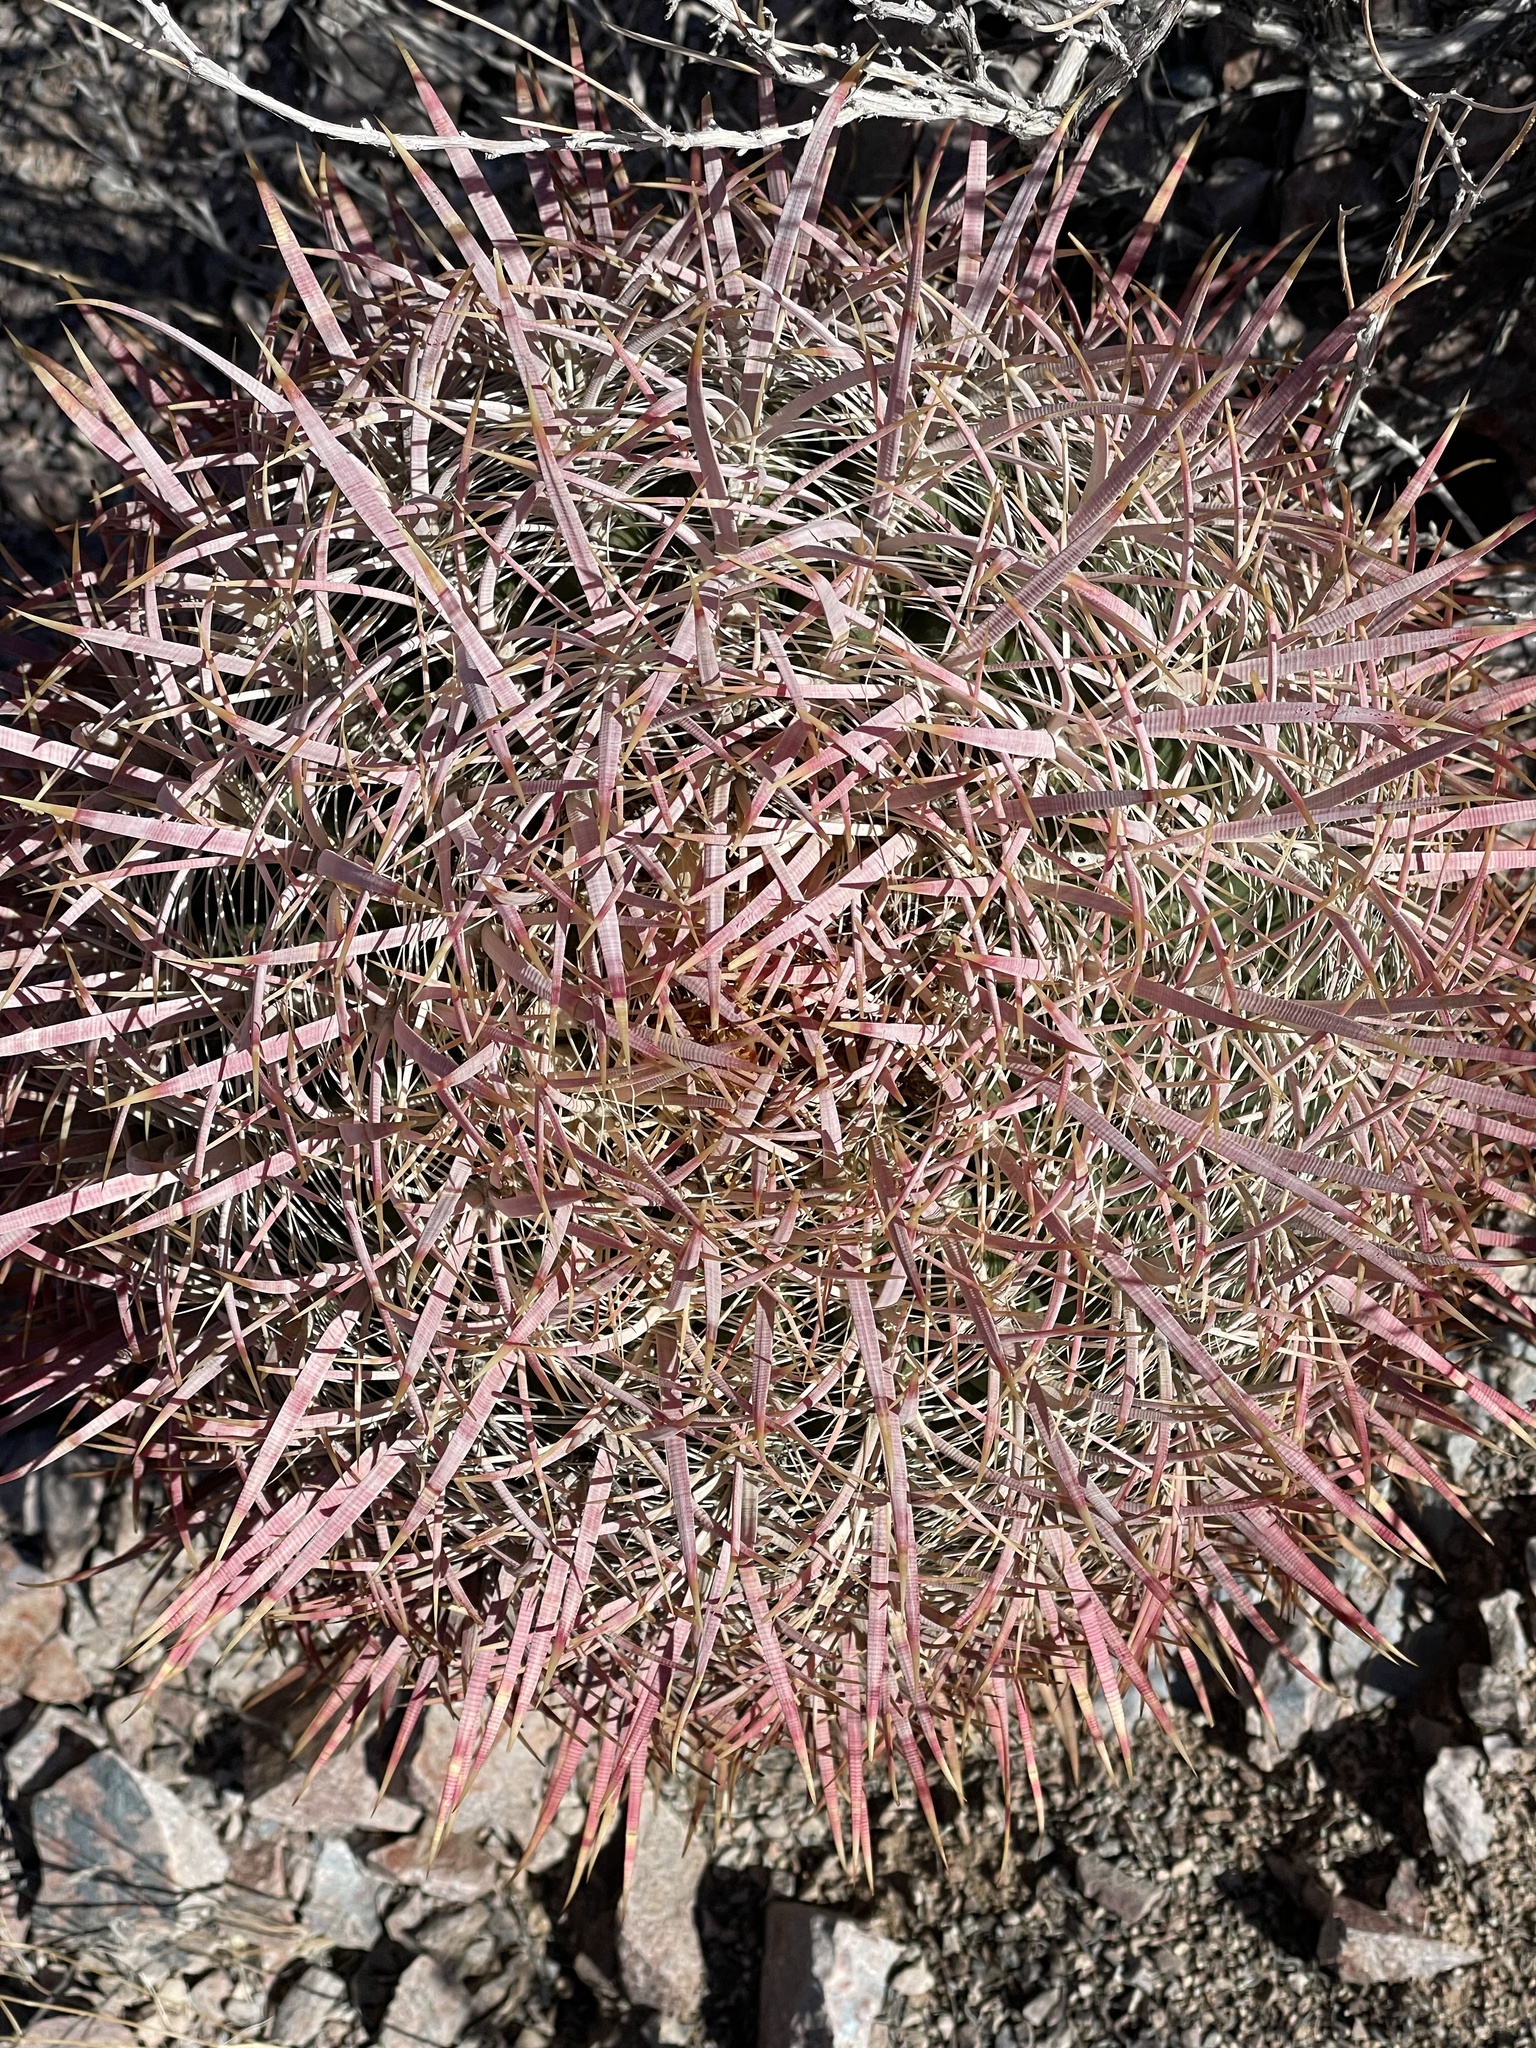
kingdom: Plantae
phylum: Tracheophyta
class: Magnoliopsida
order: Caryophyllales
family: Cactaceae
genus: Ferocactus
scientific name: Ferocactus cylindraceus
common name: California barrel cactus
